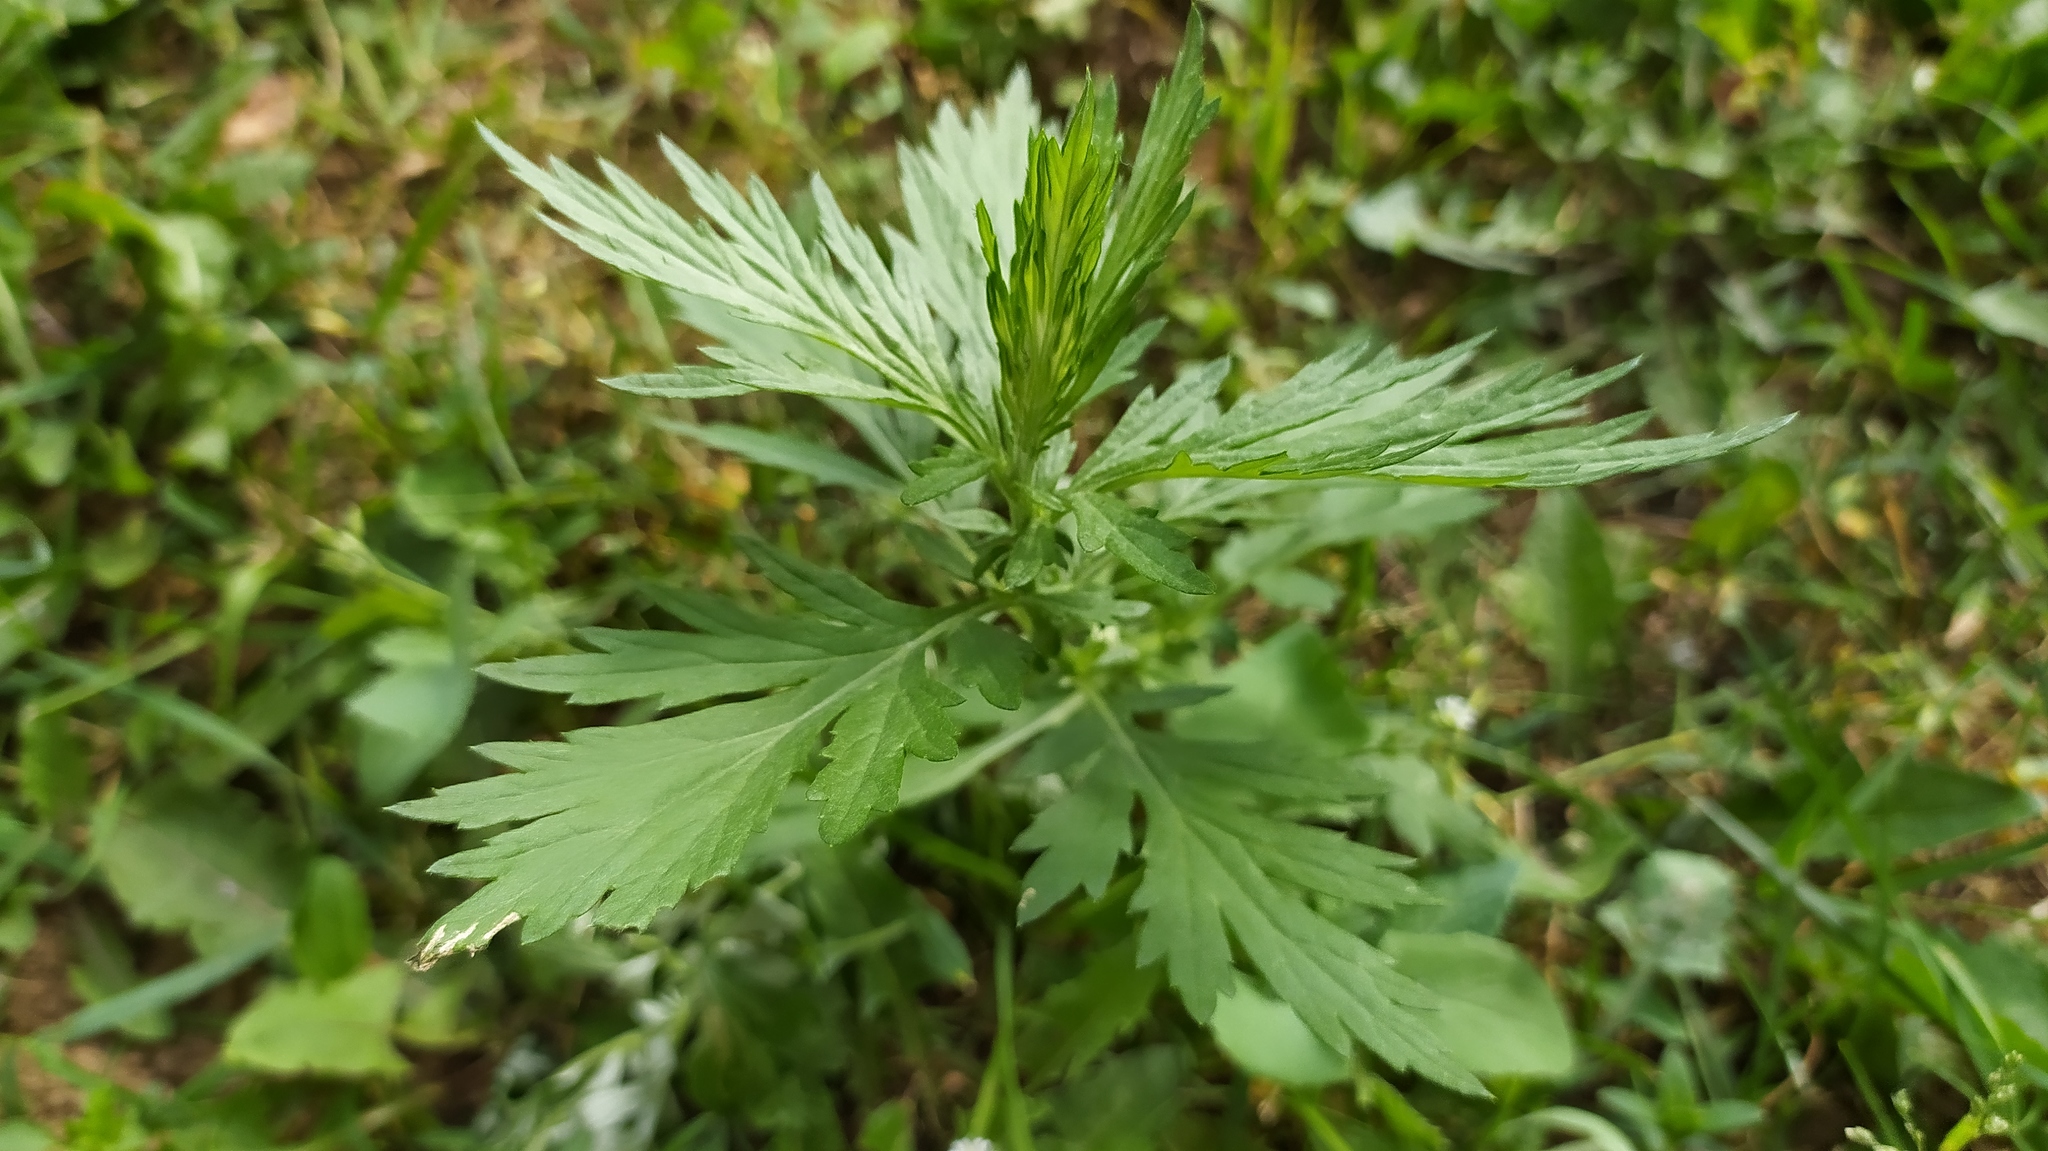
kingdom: Plantae
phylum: Tracheophyta
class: Magnoliopsida
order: Asterales
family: Asteraceae
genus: Artemisia
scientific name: Artemisia vulgaris
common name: Mugwort
